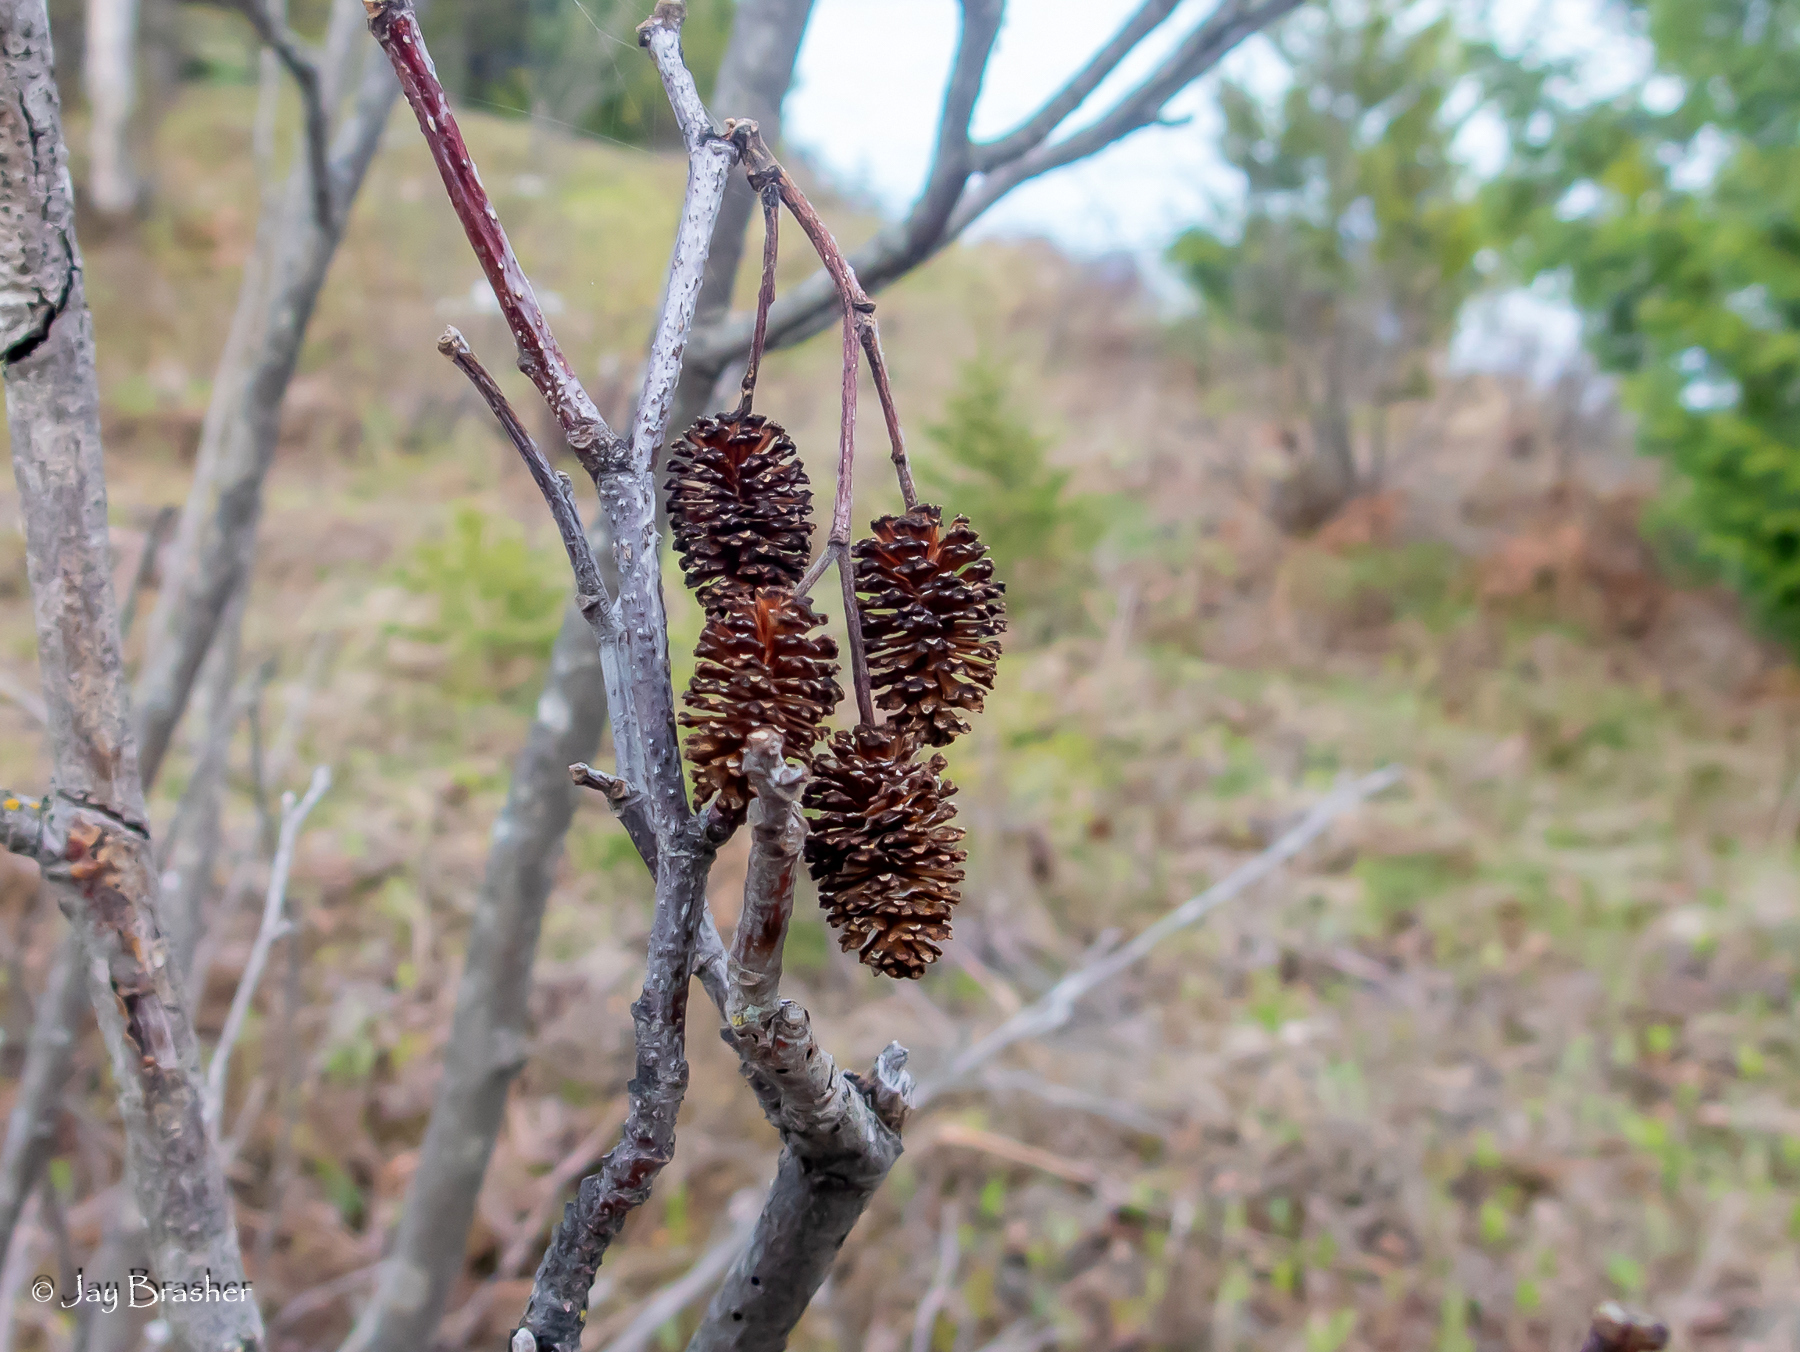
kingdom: Plantae
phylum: Tracheophyta
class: Magnoliopsida
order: Fagales
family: Betulaceae
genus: Alnus
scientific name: Alnus alnobetula
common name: Green alder
